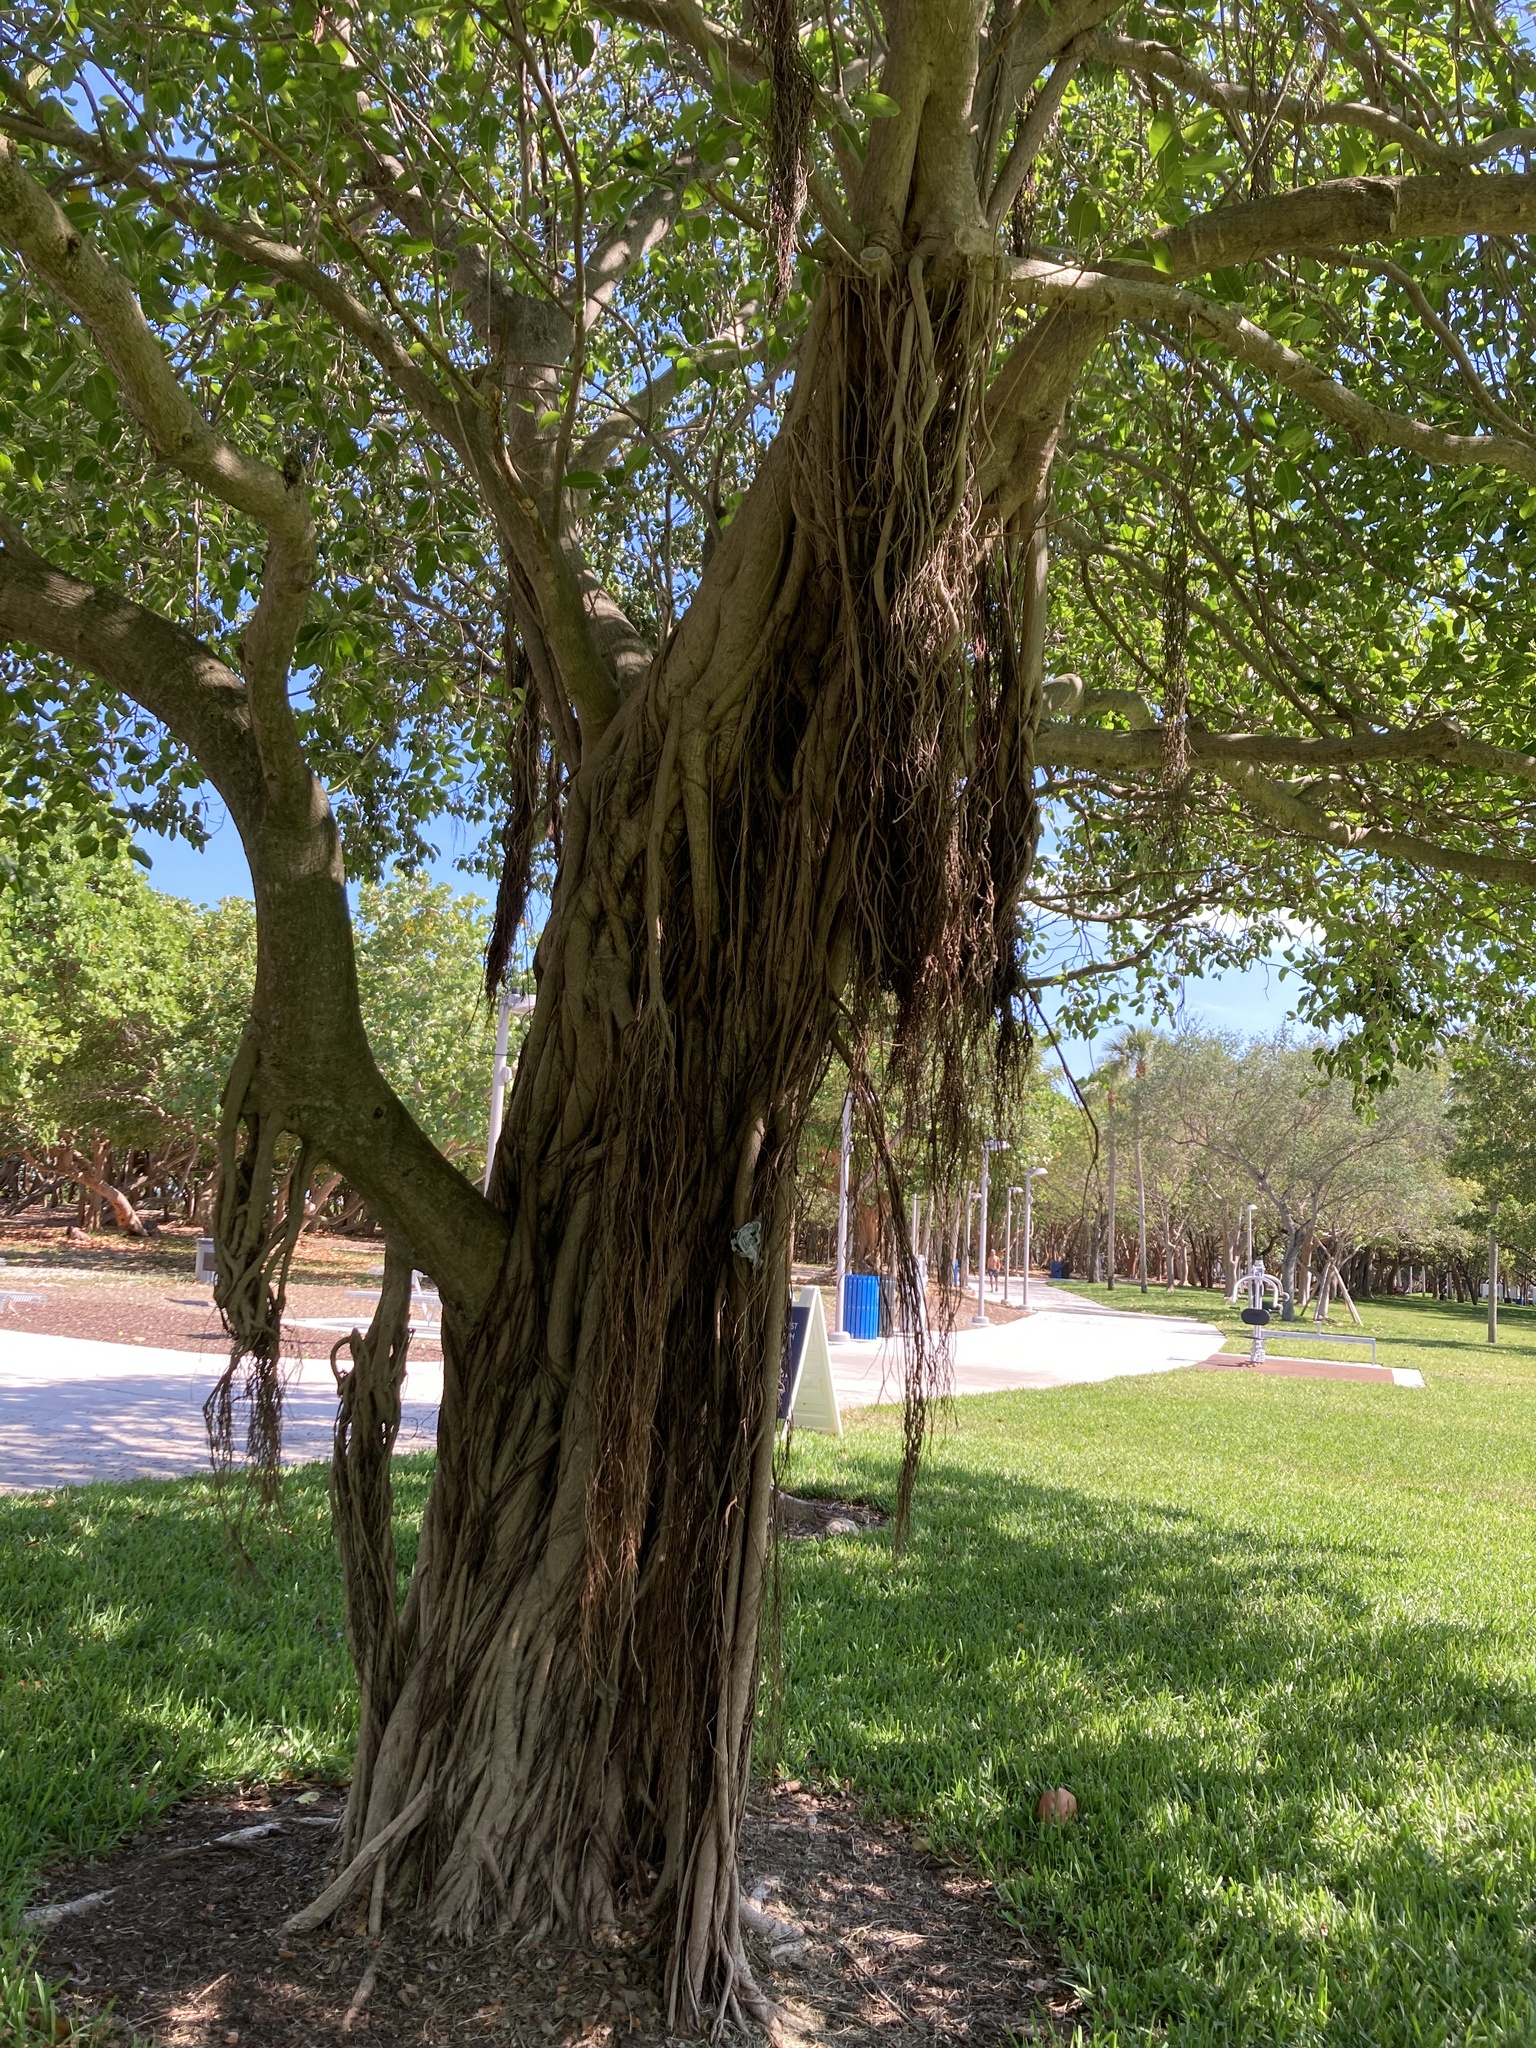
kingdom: Plantae
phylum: Tracheophyta
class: Magnoliopsida
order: Rosales
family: Moraceae
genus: Ficus
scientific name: Ficus aurea
